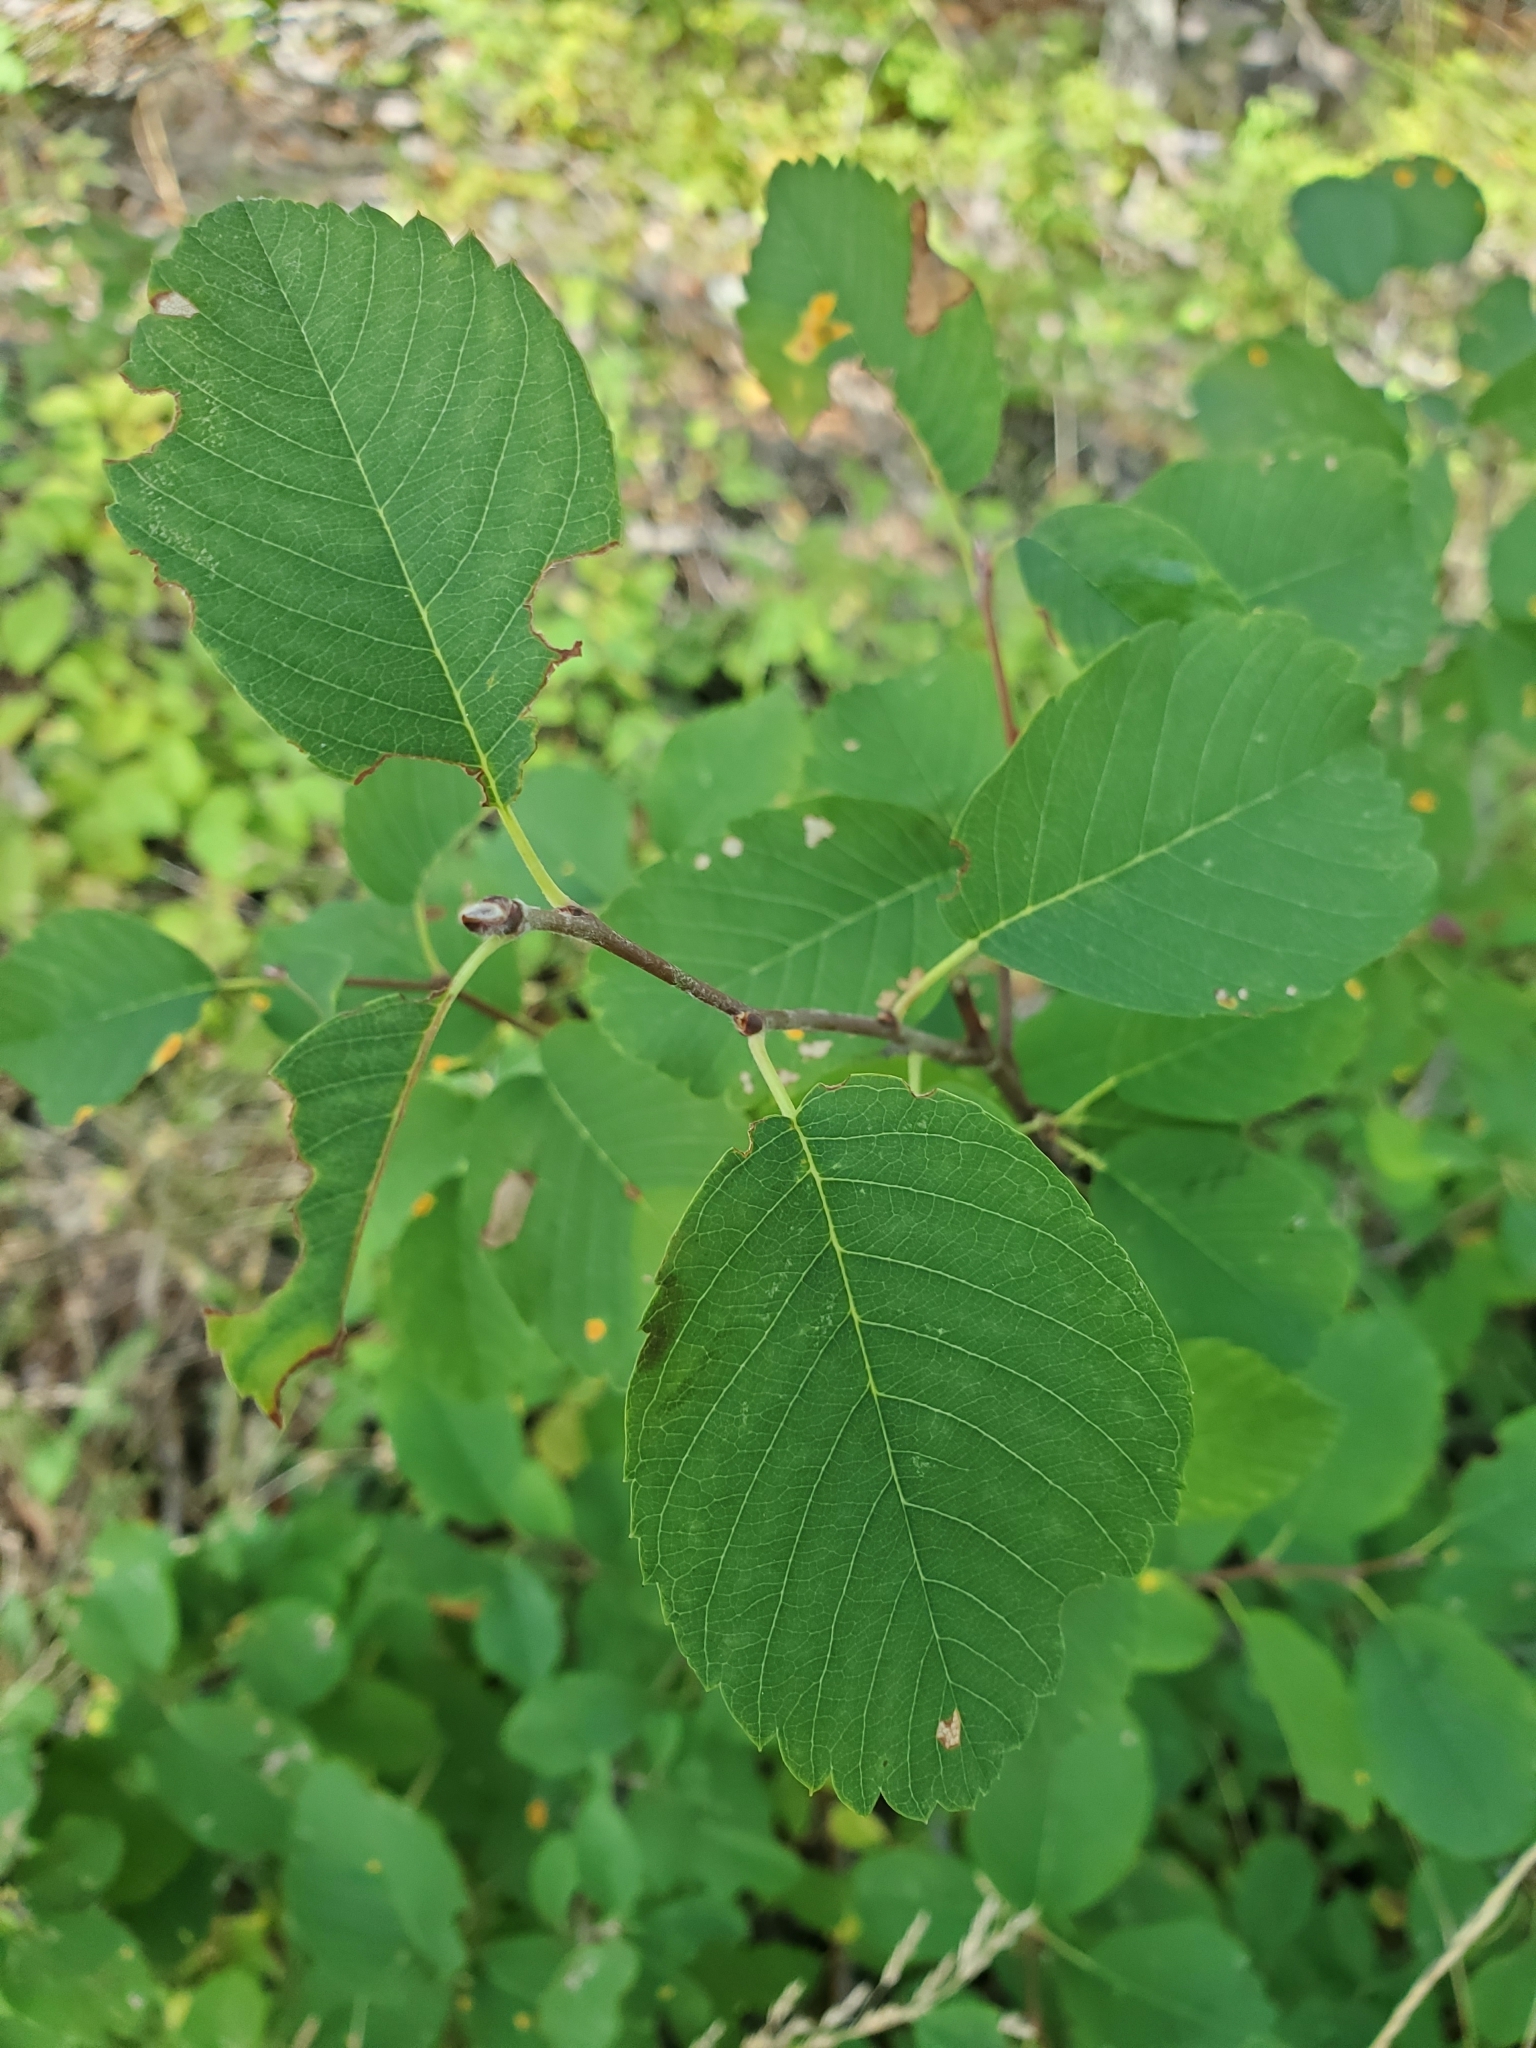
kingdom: Plantae
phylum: Tracheophyta
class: Magnoliopsida
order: Rosales
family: Rosaceae
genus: Amelanchier
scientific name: Amelanchier alnifolia
